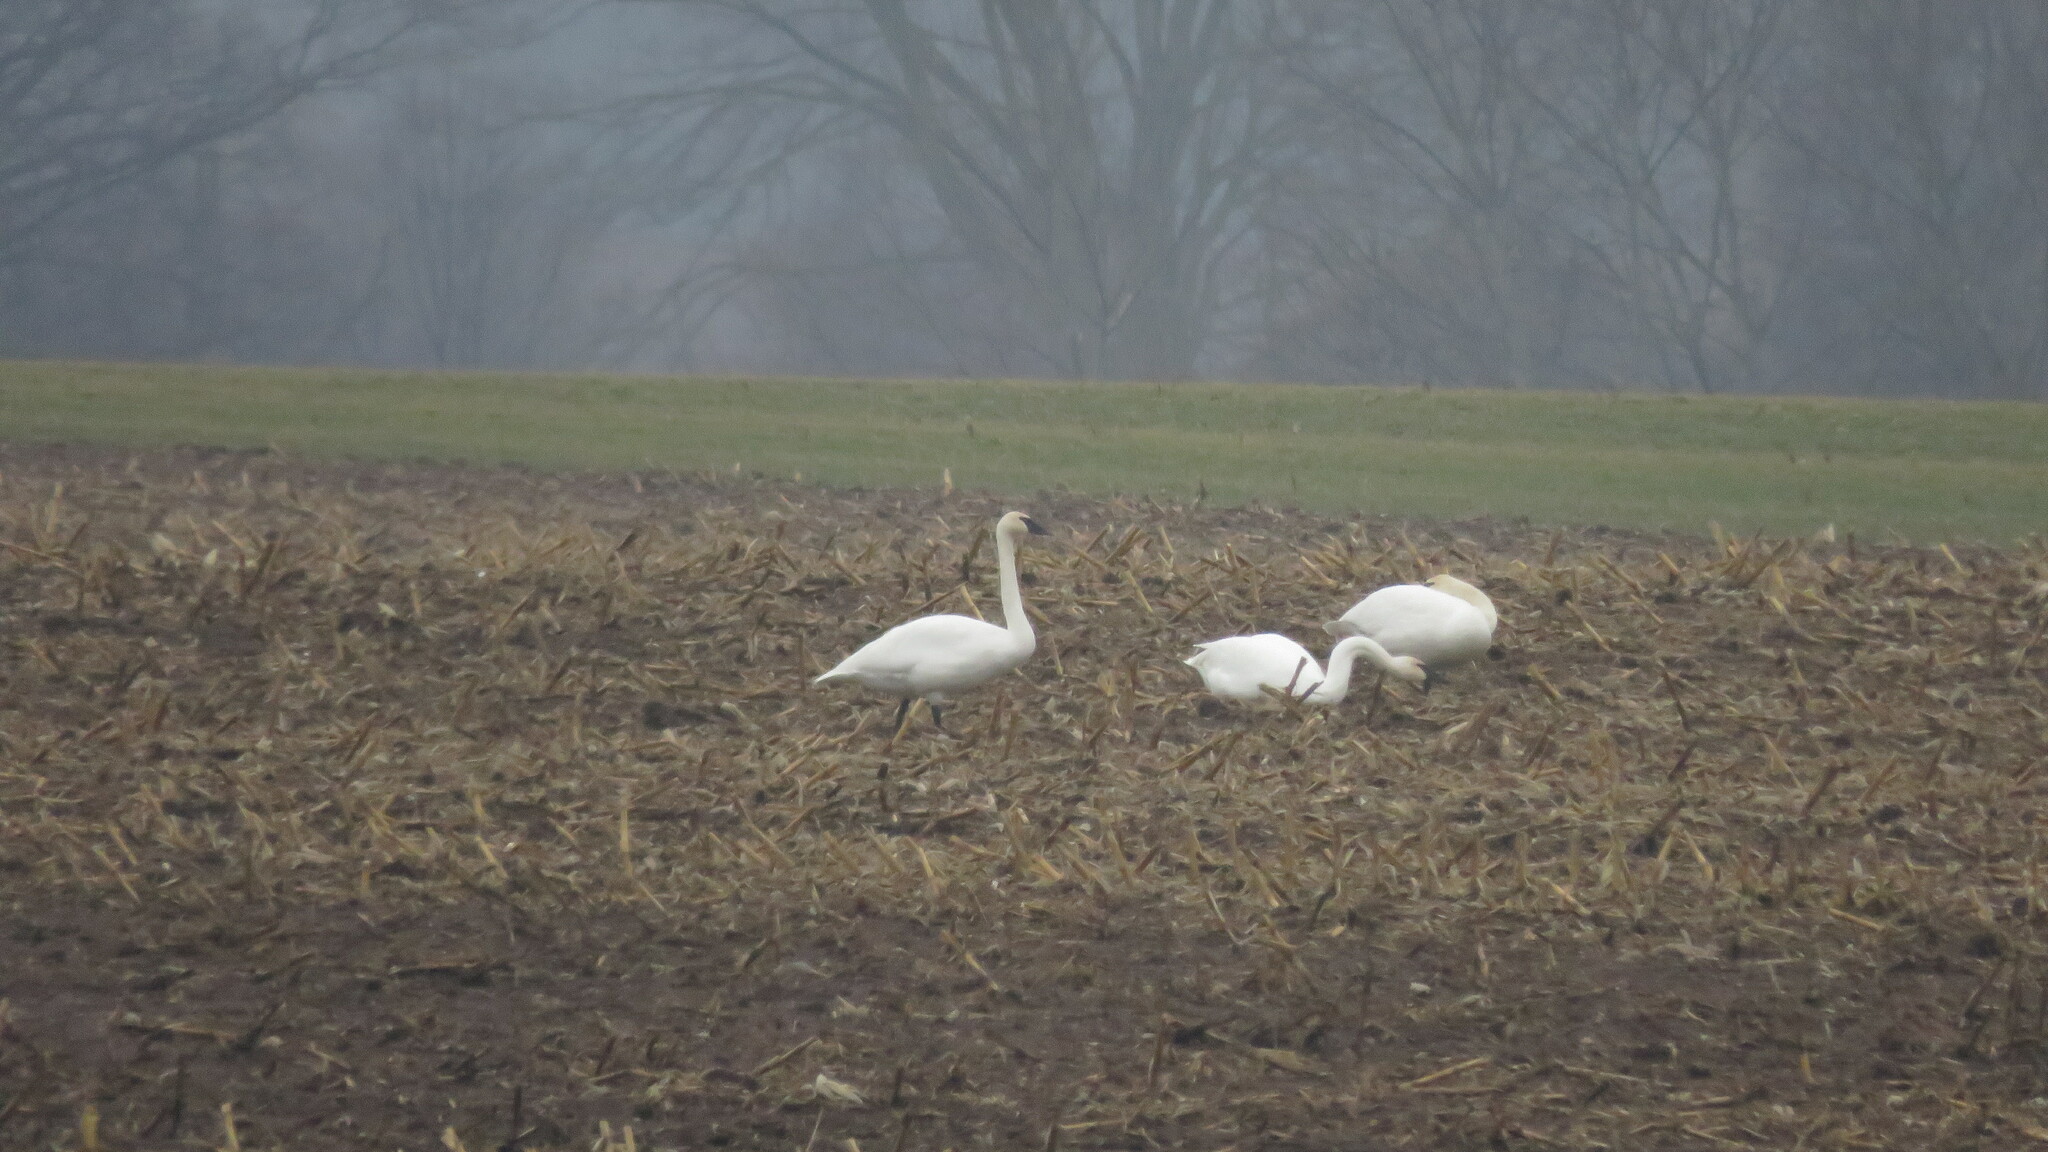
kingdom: Animalia
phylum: Chordata
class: Aves
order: Anseriformes
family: Anatidae
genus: Cygnus
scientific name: Cygnus buccinator
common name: Trumpeter swan
